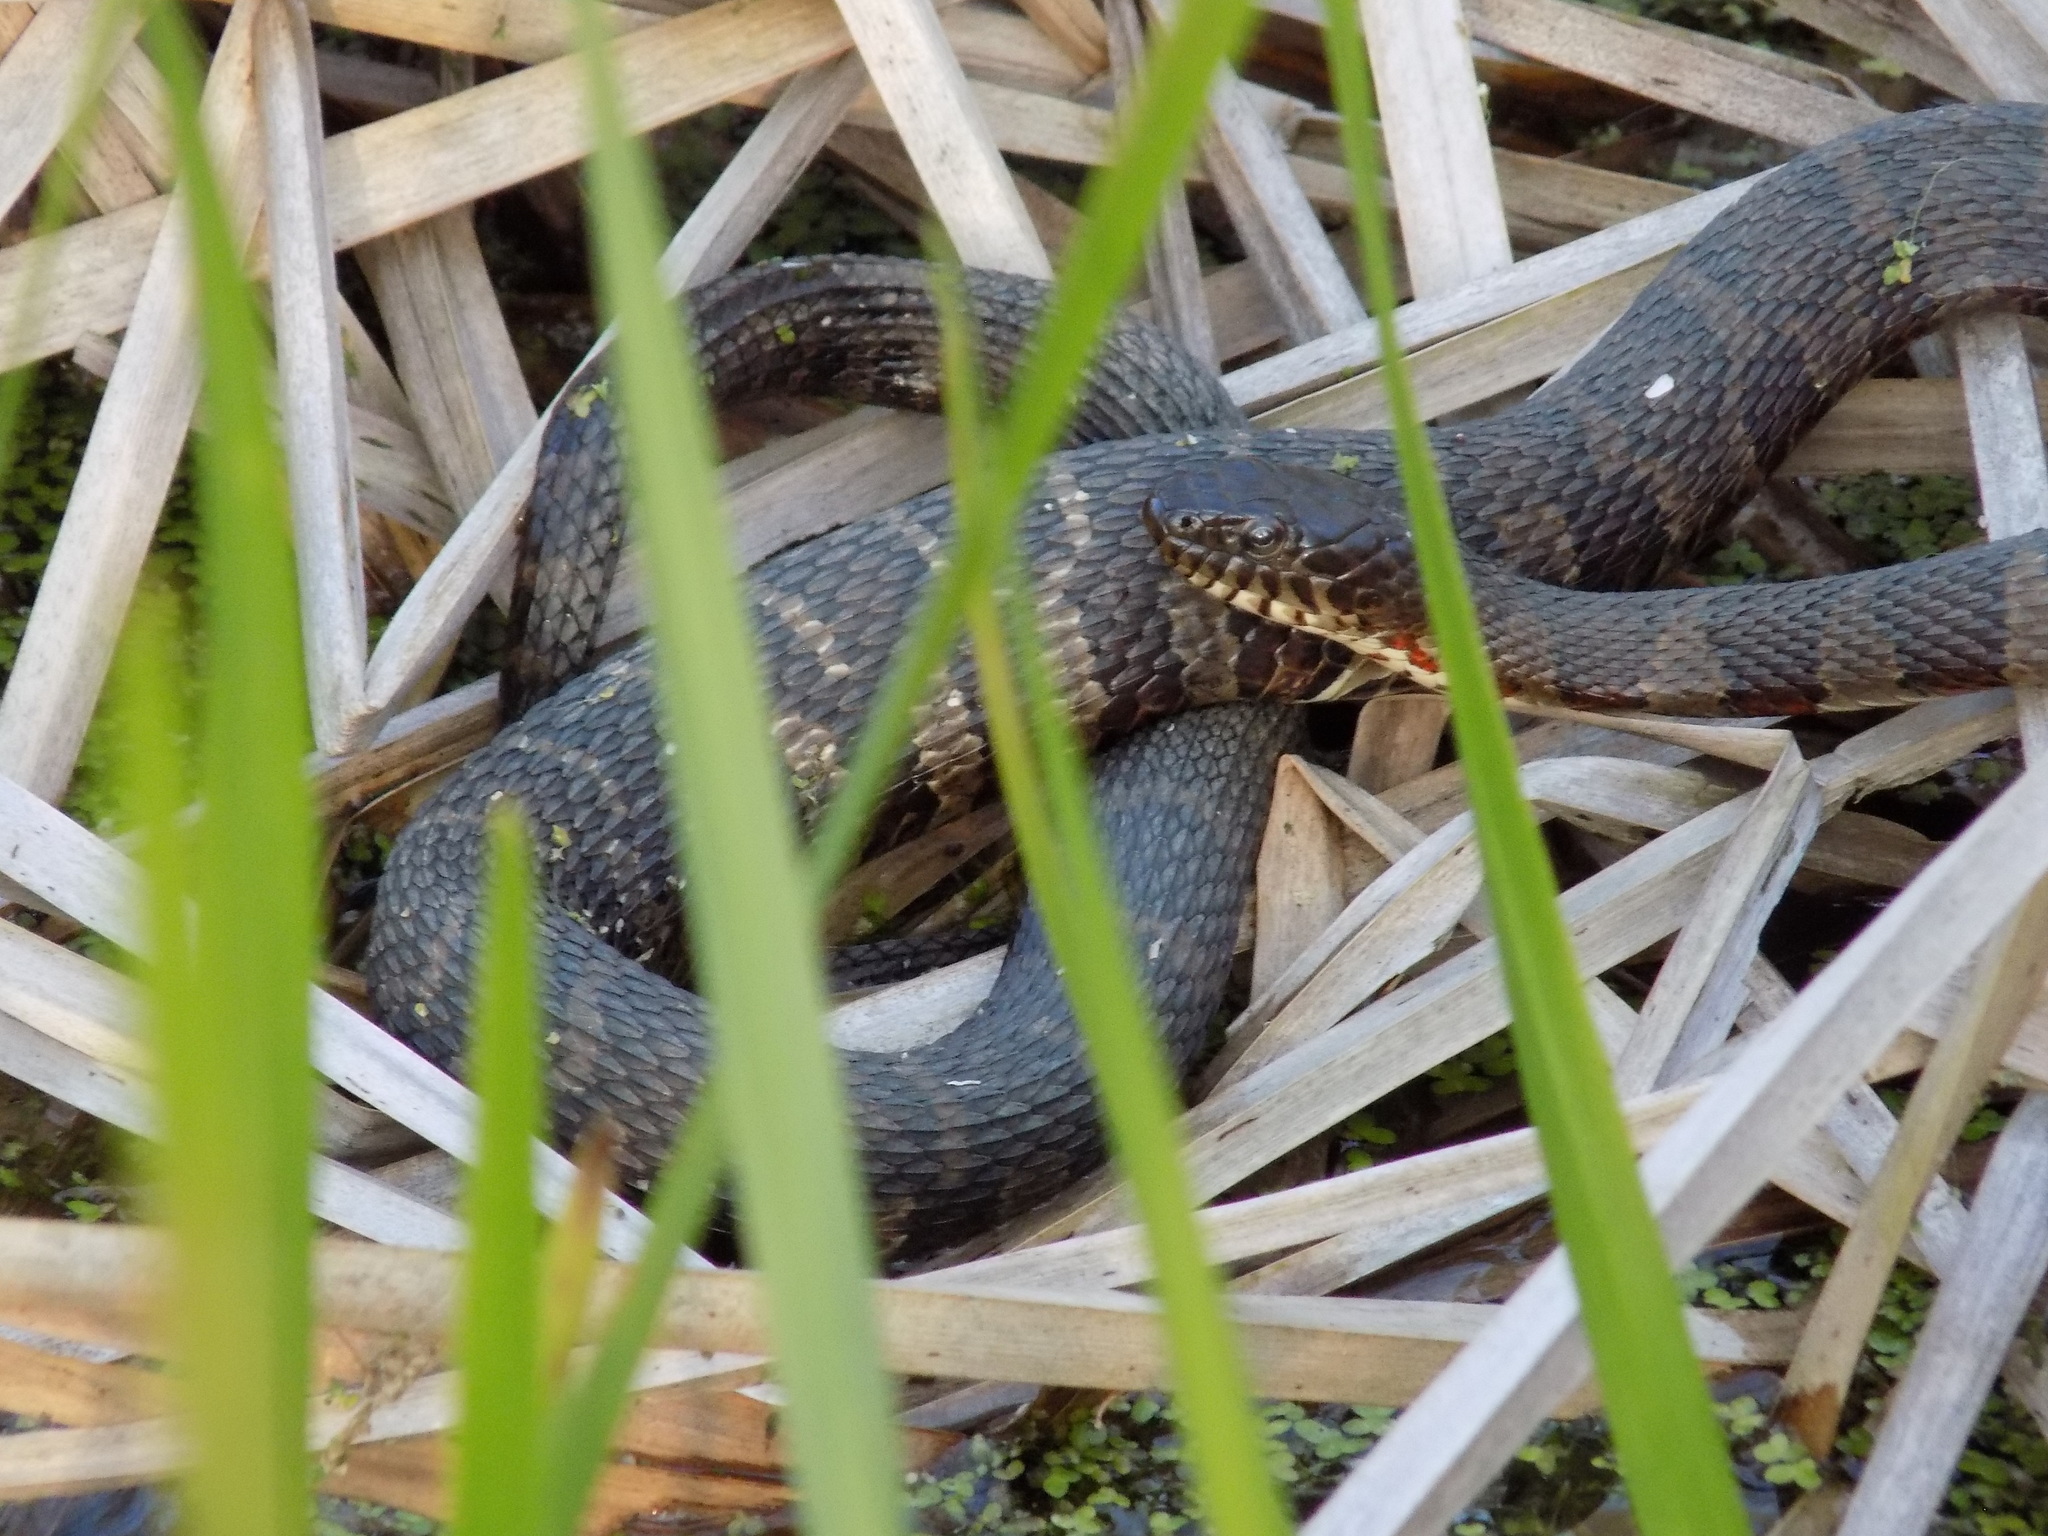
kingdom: Animalia
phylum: Chordata
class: Squamata
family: Colubridae
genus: Nerodia
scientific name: Nerodia sipedon
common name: Northern water snake
